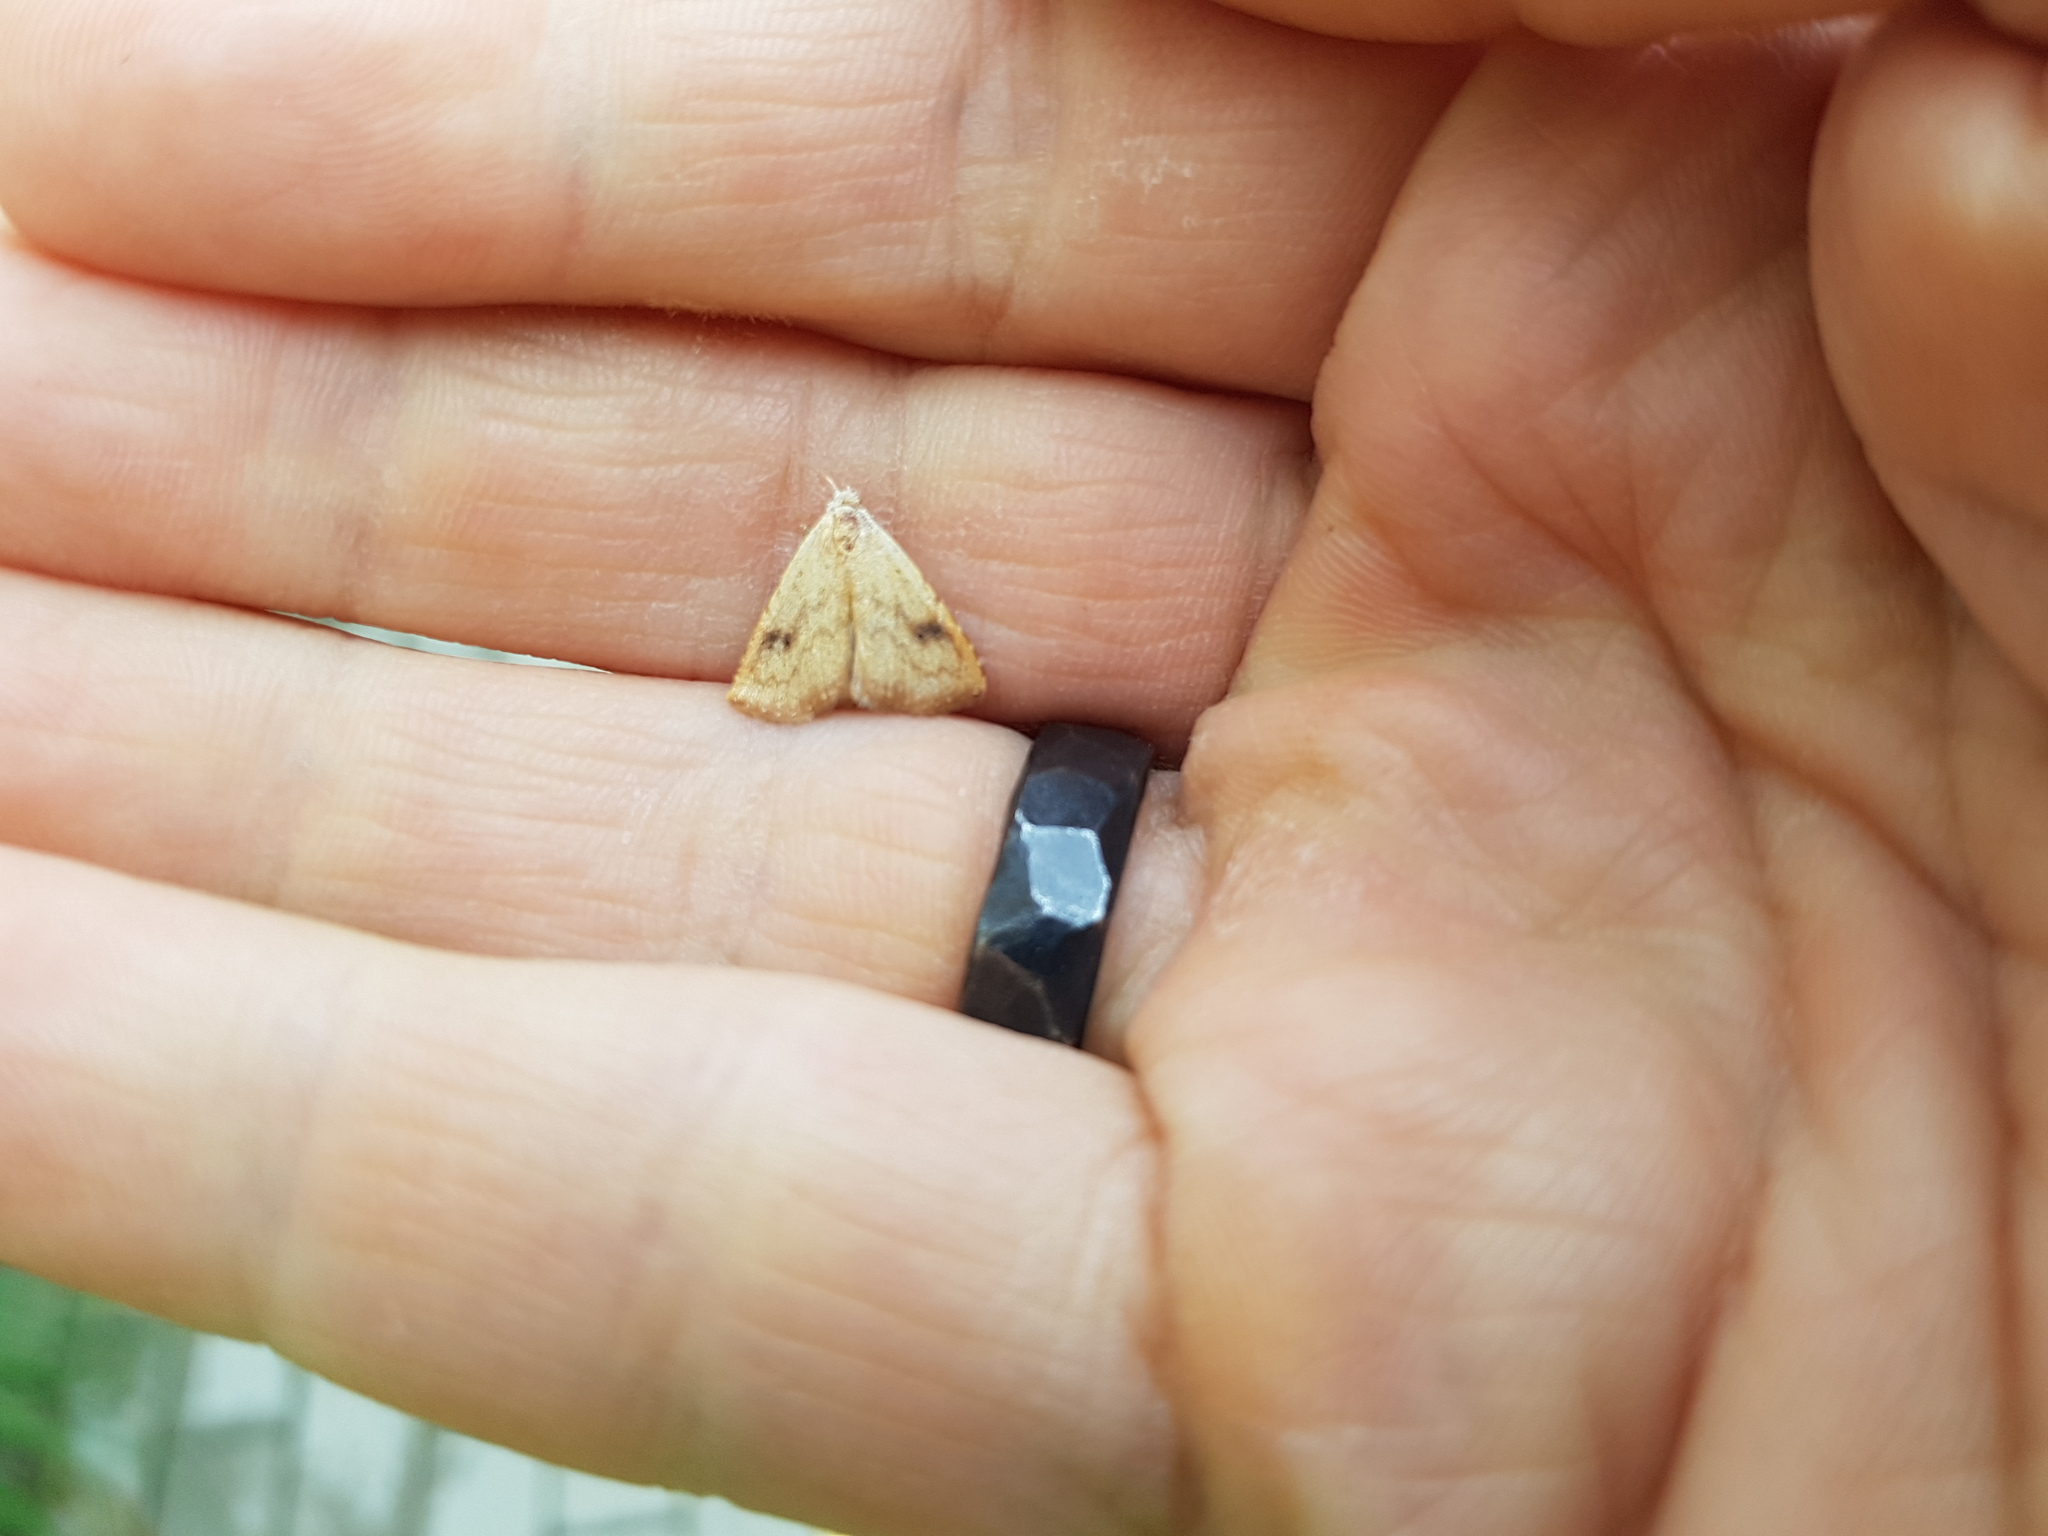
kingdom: Animalia
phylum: Arthropoda
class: Insecta
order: Lepidoptera
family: Erebidae
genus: Rivula
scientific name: Rivula sericealis
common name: Straw dot
